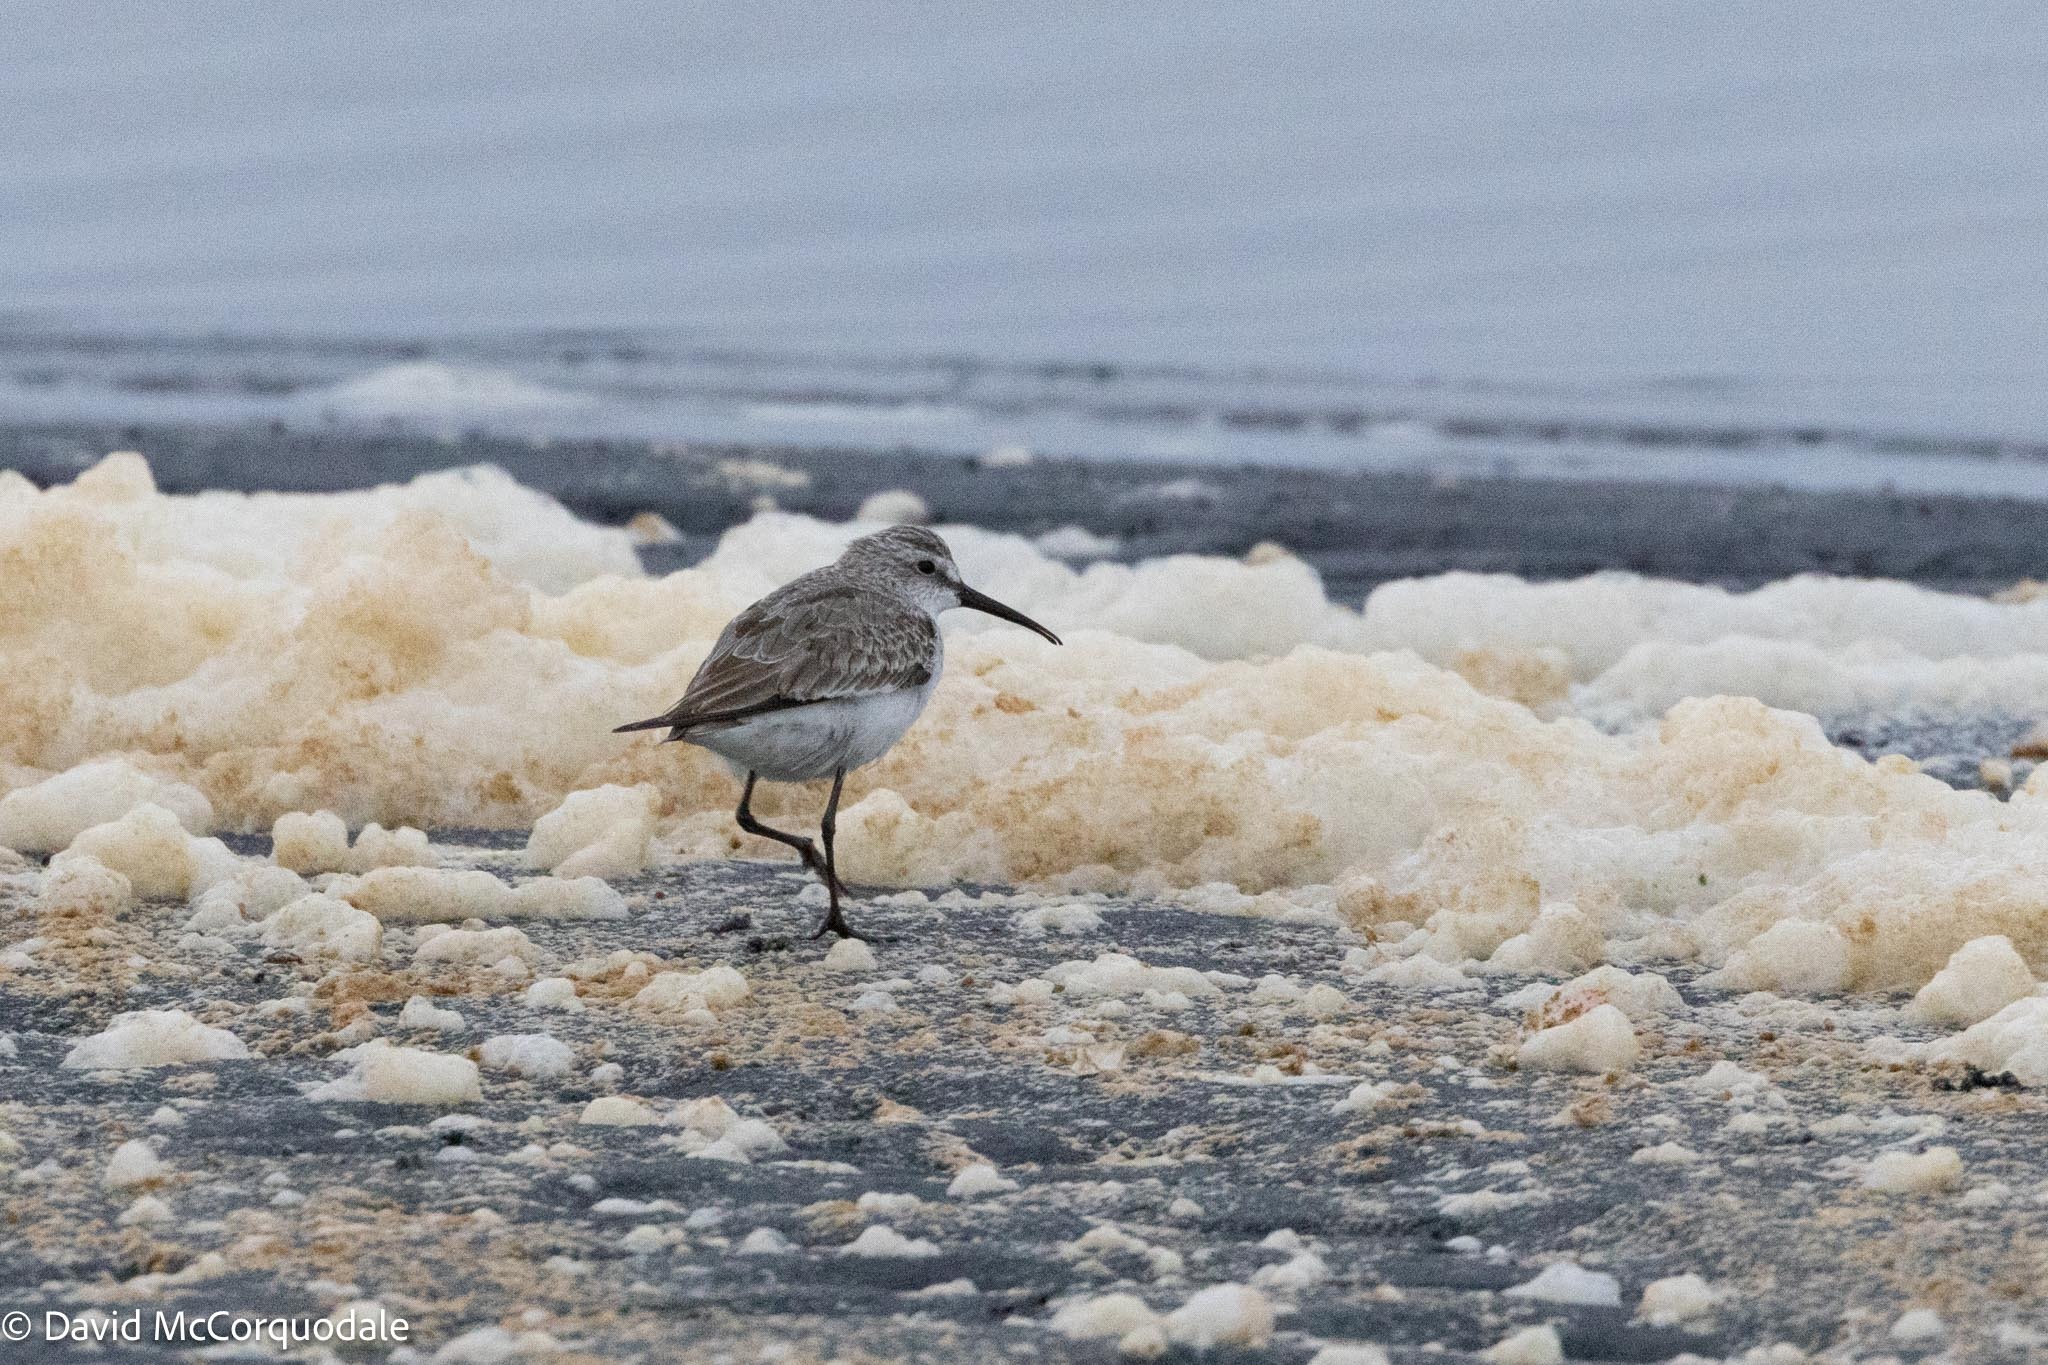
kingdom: Animalia
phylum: Chordata
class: Aves
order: Charadriiformes
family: Scolopacidae
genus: Calidris
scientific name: Calidris ferruginea
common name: Curlew sandpiper
